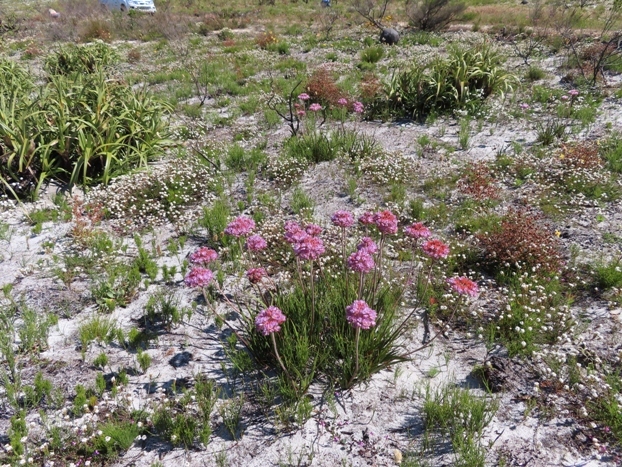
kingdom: Plantae
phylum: Tracheophyta
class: Liliopsida
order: Commelinales
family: Haemodoraceae
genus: Dilatris
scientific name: Dilatris corymbosa
